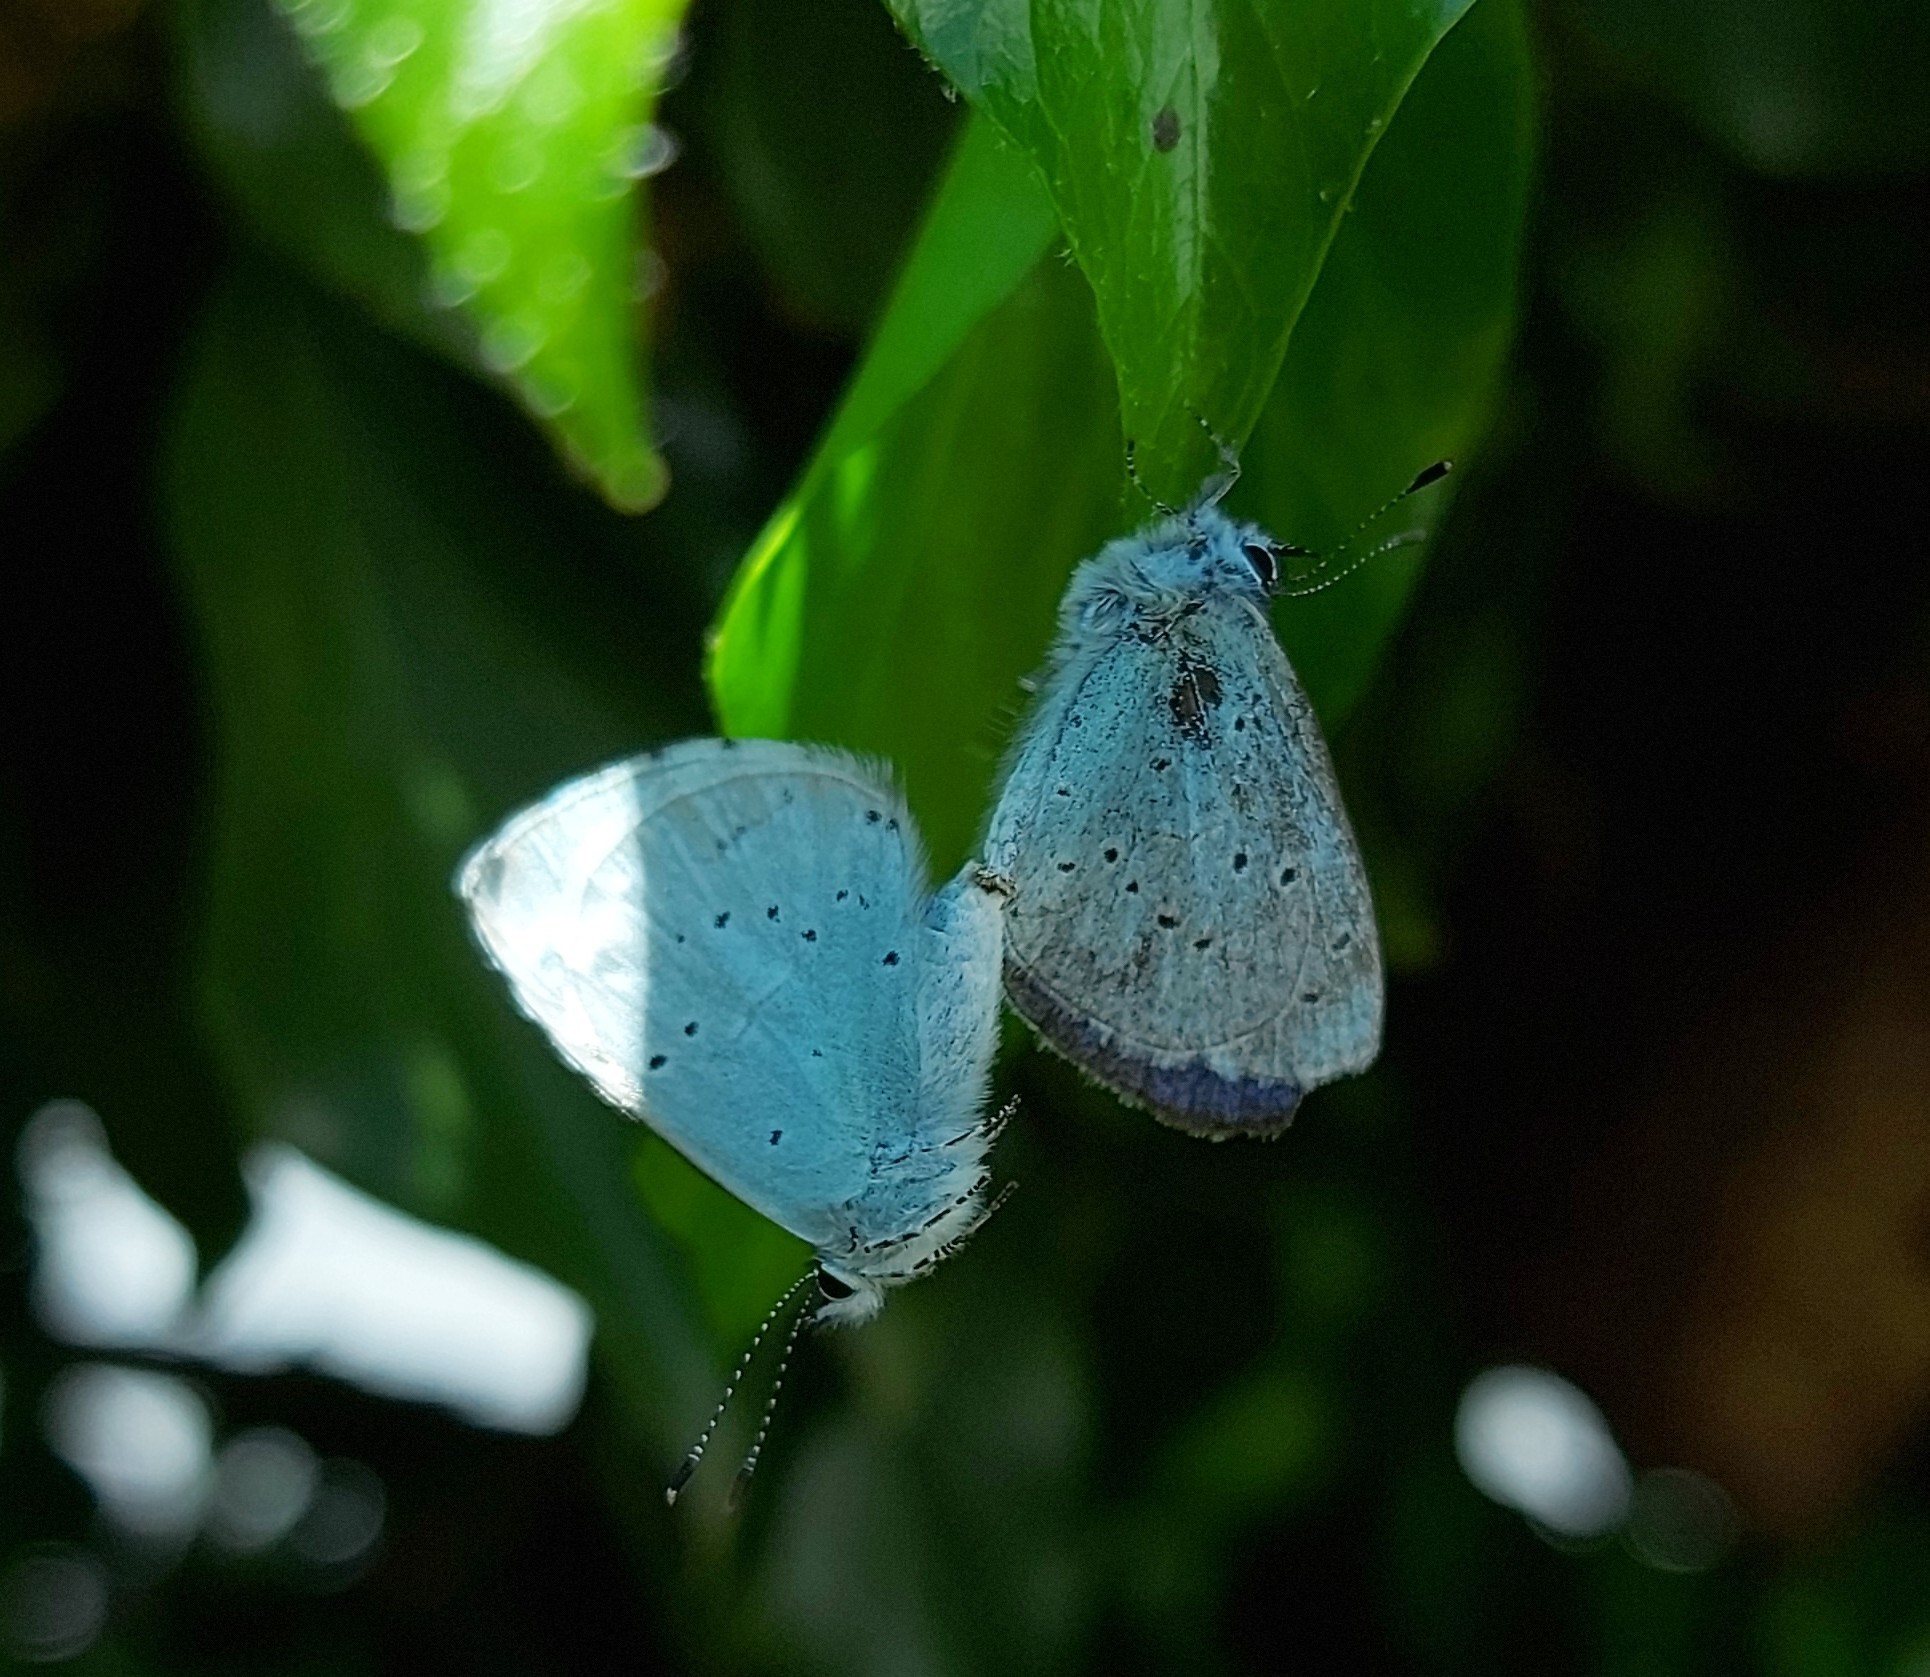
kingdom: Animalia
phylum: Arthropoda
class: Insecta
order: Lepidoptera
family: Lycaenidae
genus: Celastrina
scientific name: Celastrina argiolus
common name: Holly blue
